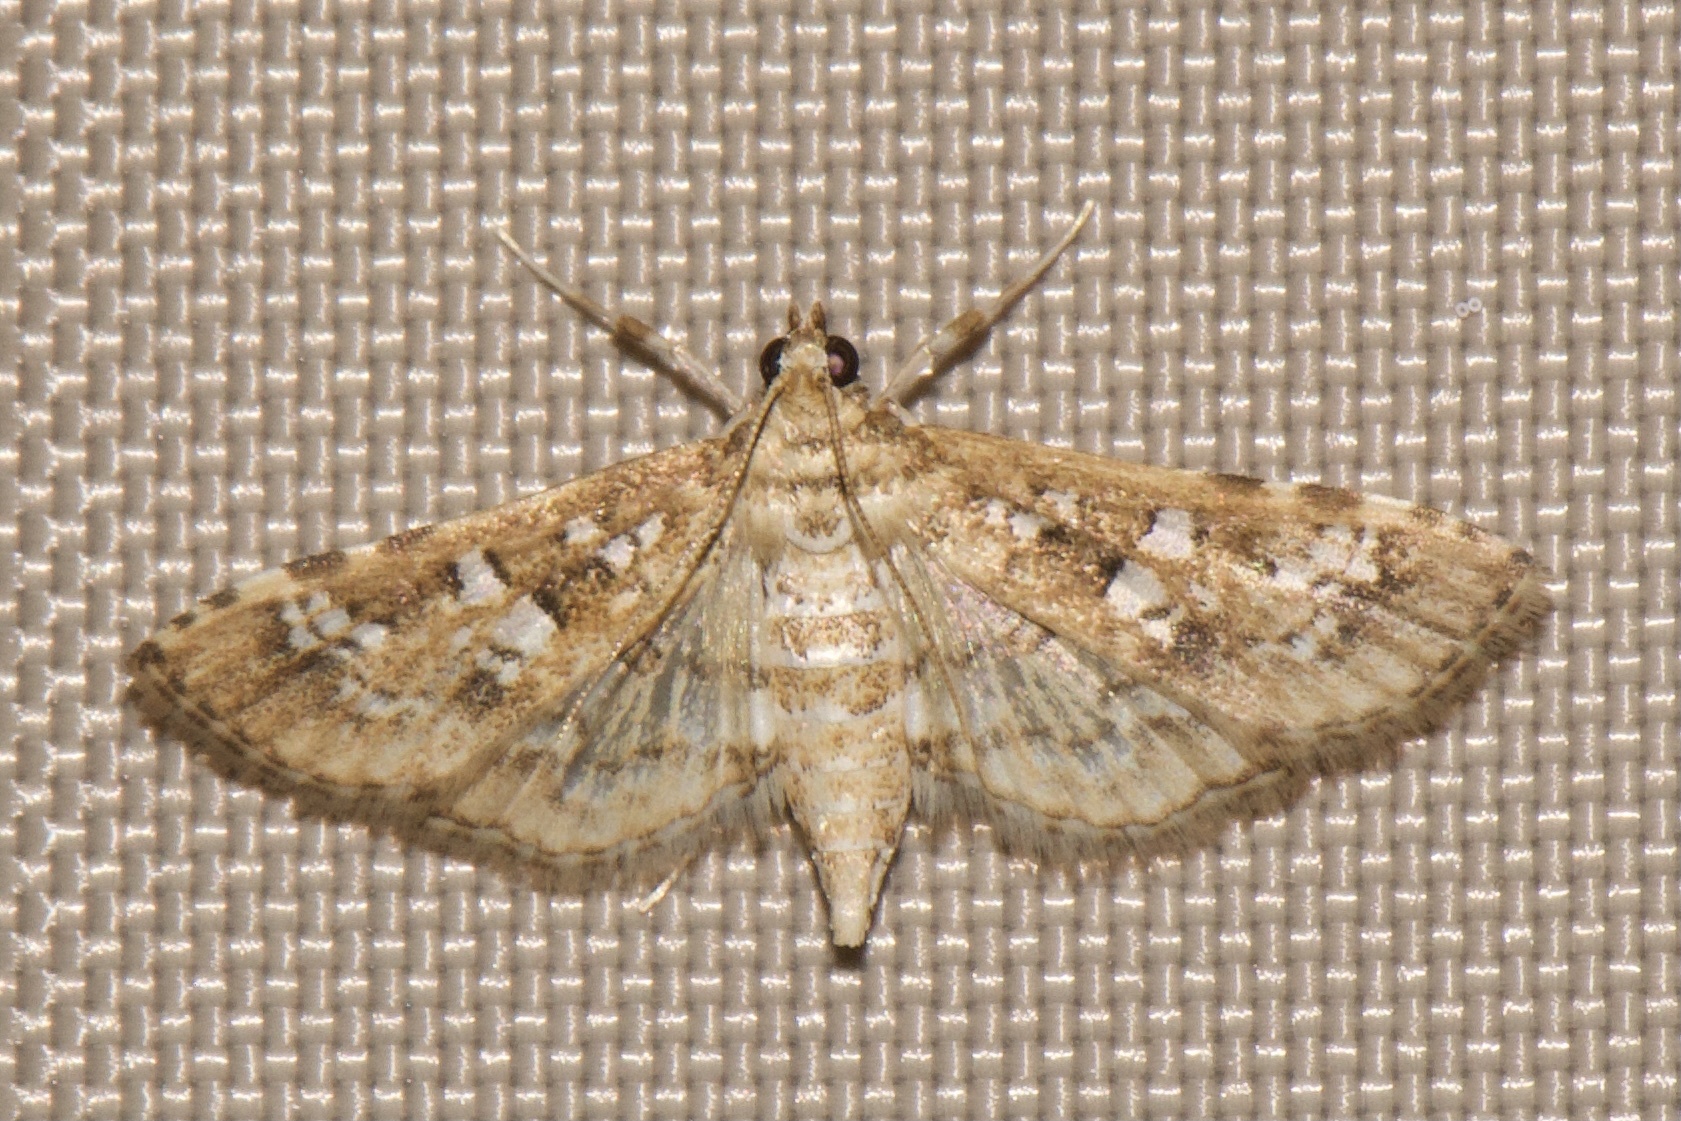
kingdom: Animalia
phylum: Arthropoda
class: Insecta
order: Lepidoptera
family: Crambidae
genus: Samea
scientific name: Samea multiplicalis
